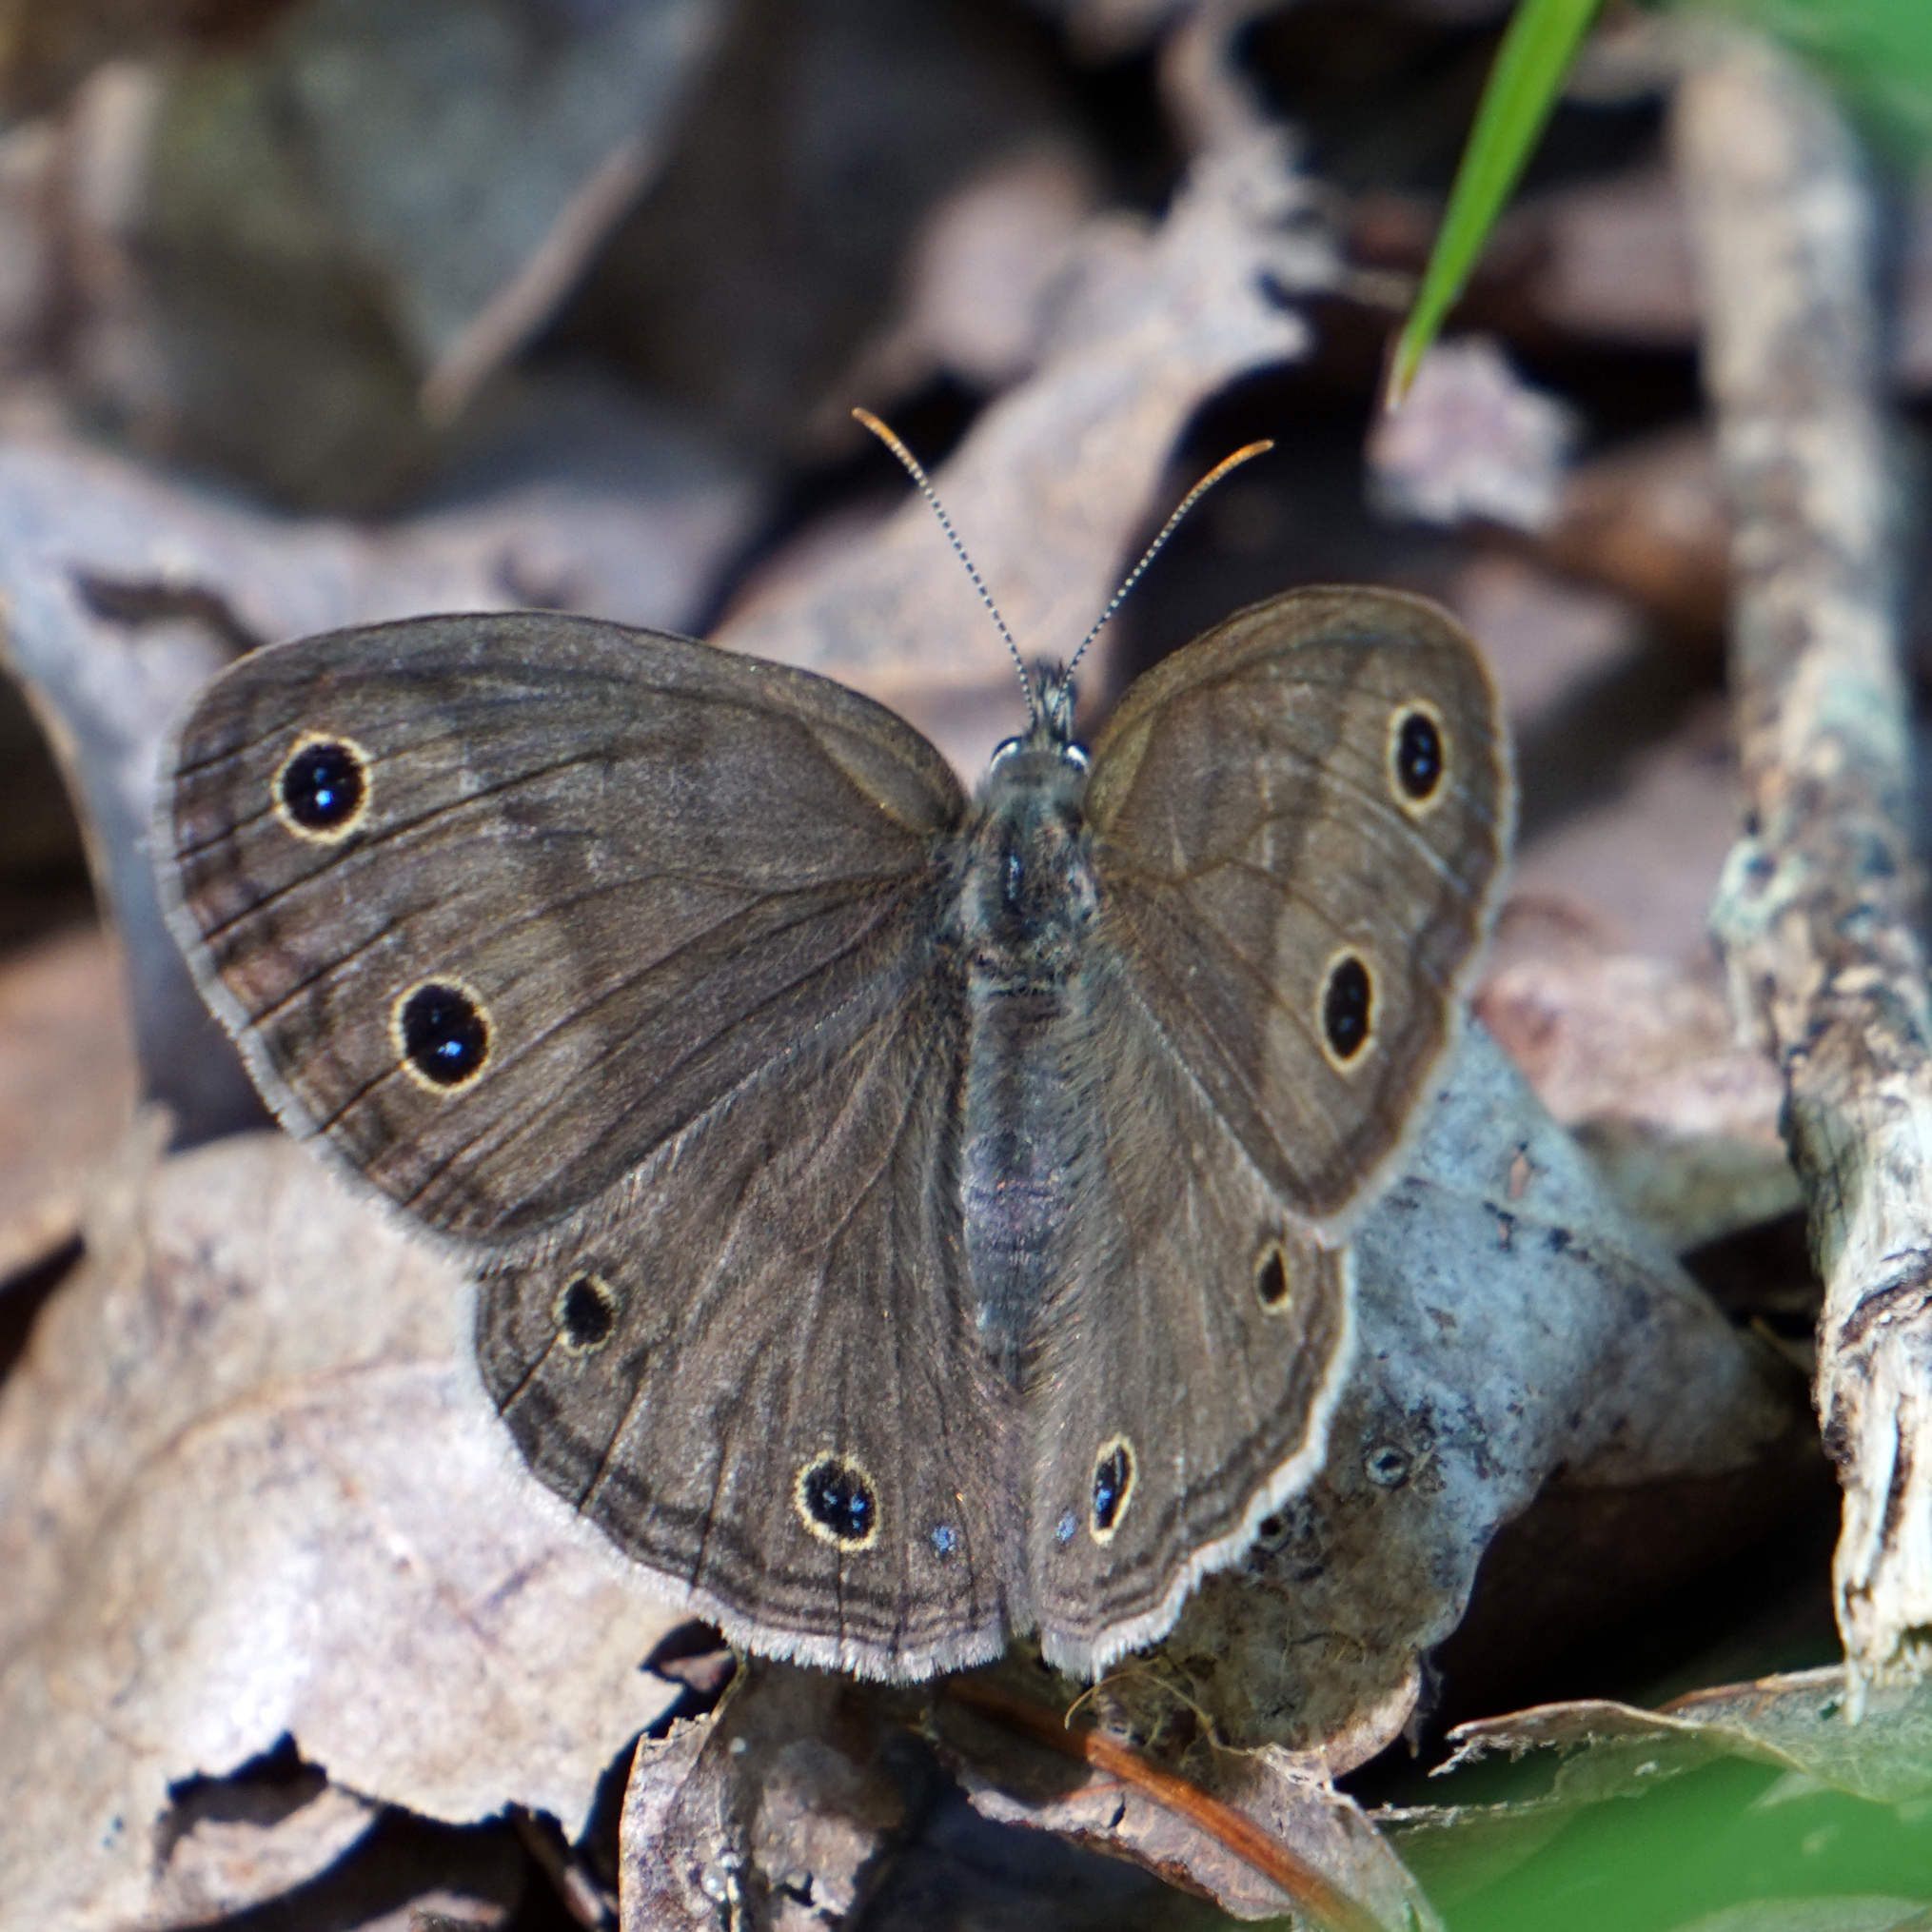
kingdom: Animalia
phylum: Arthropoda
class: Insecta
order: Lepidoptera
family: Nymphalidae
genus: Euptychia
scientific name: Euptychia cymela
